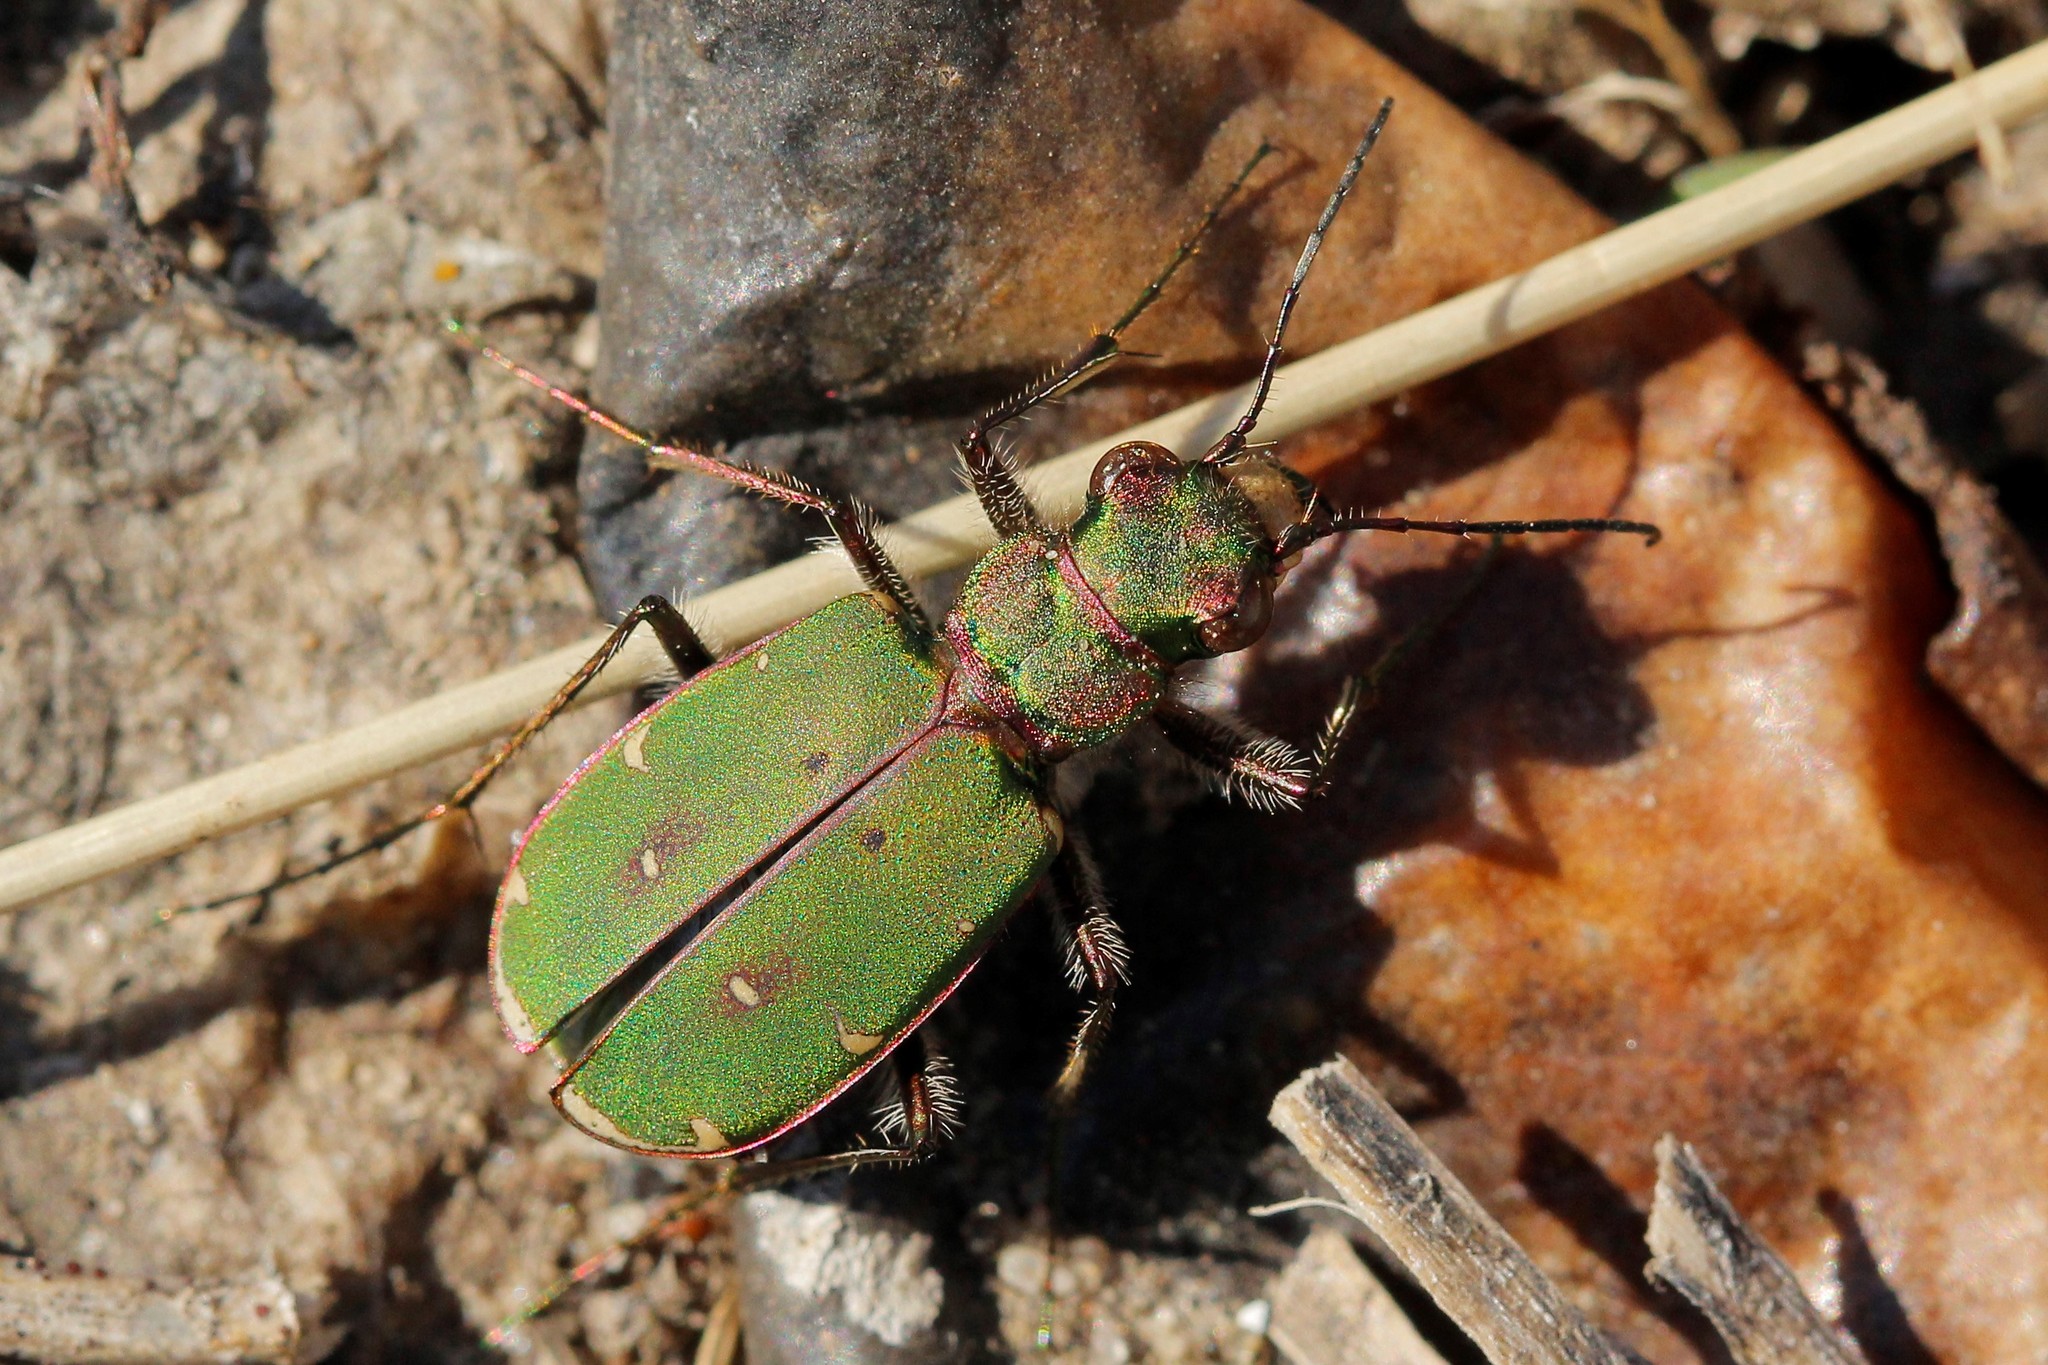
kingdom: Animalia
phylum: Arthropoda
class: Insecta
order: Coleoptera
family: Carabidae
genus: Cicindela
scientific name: Cicindela campestris
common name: Common tiger beetle
